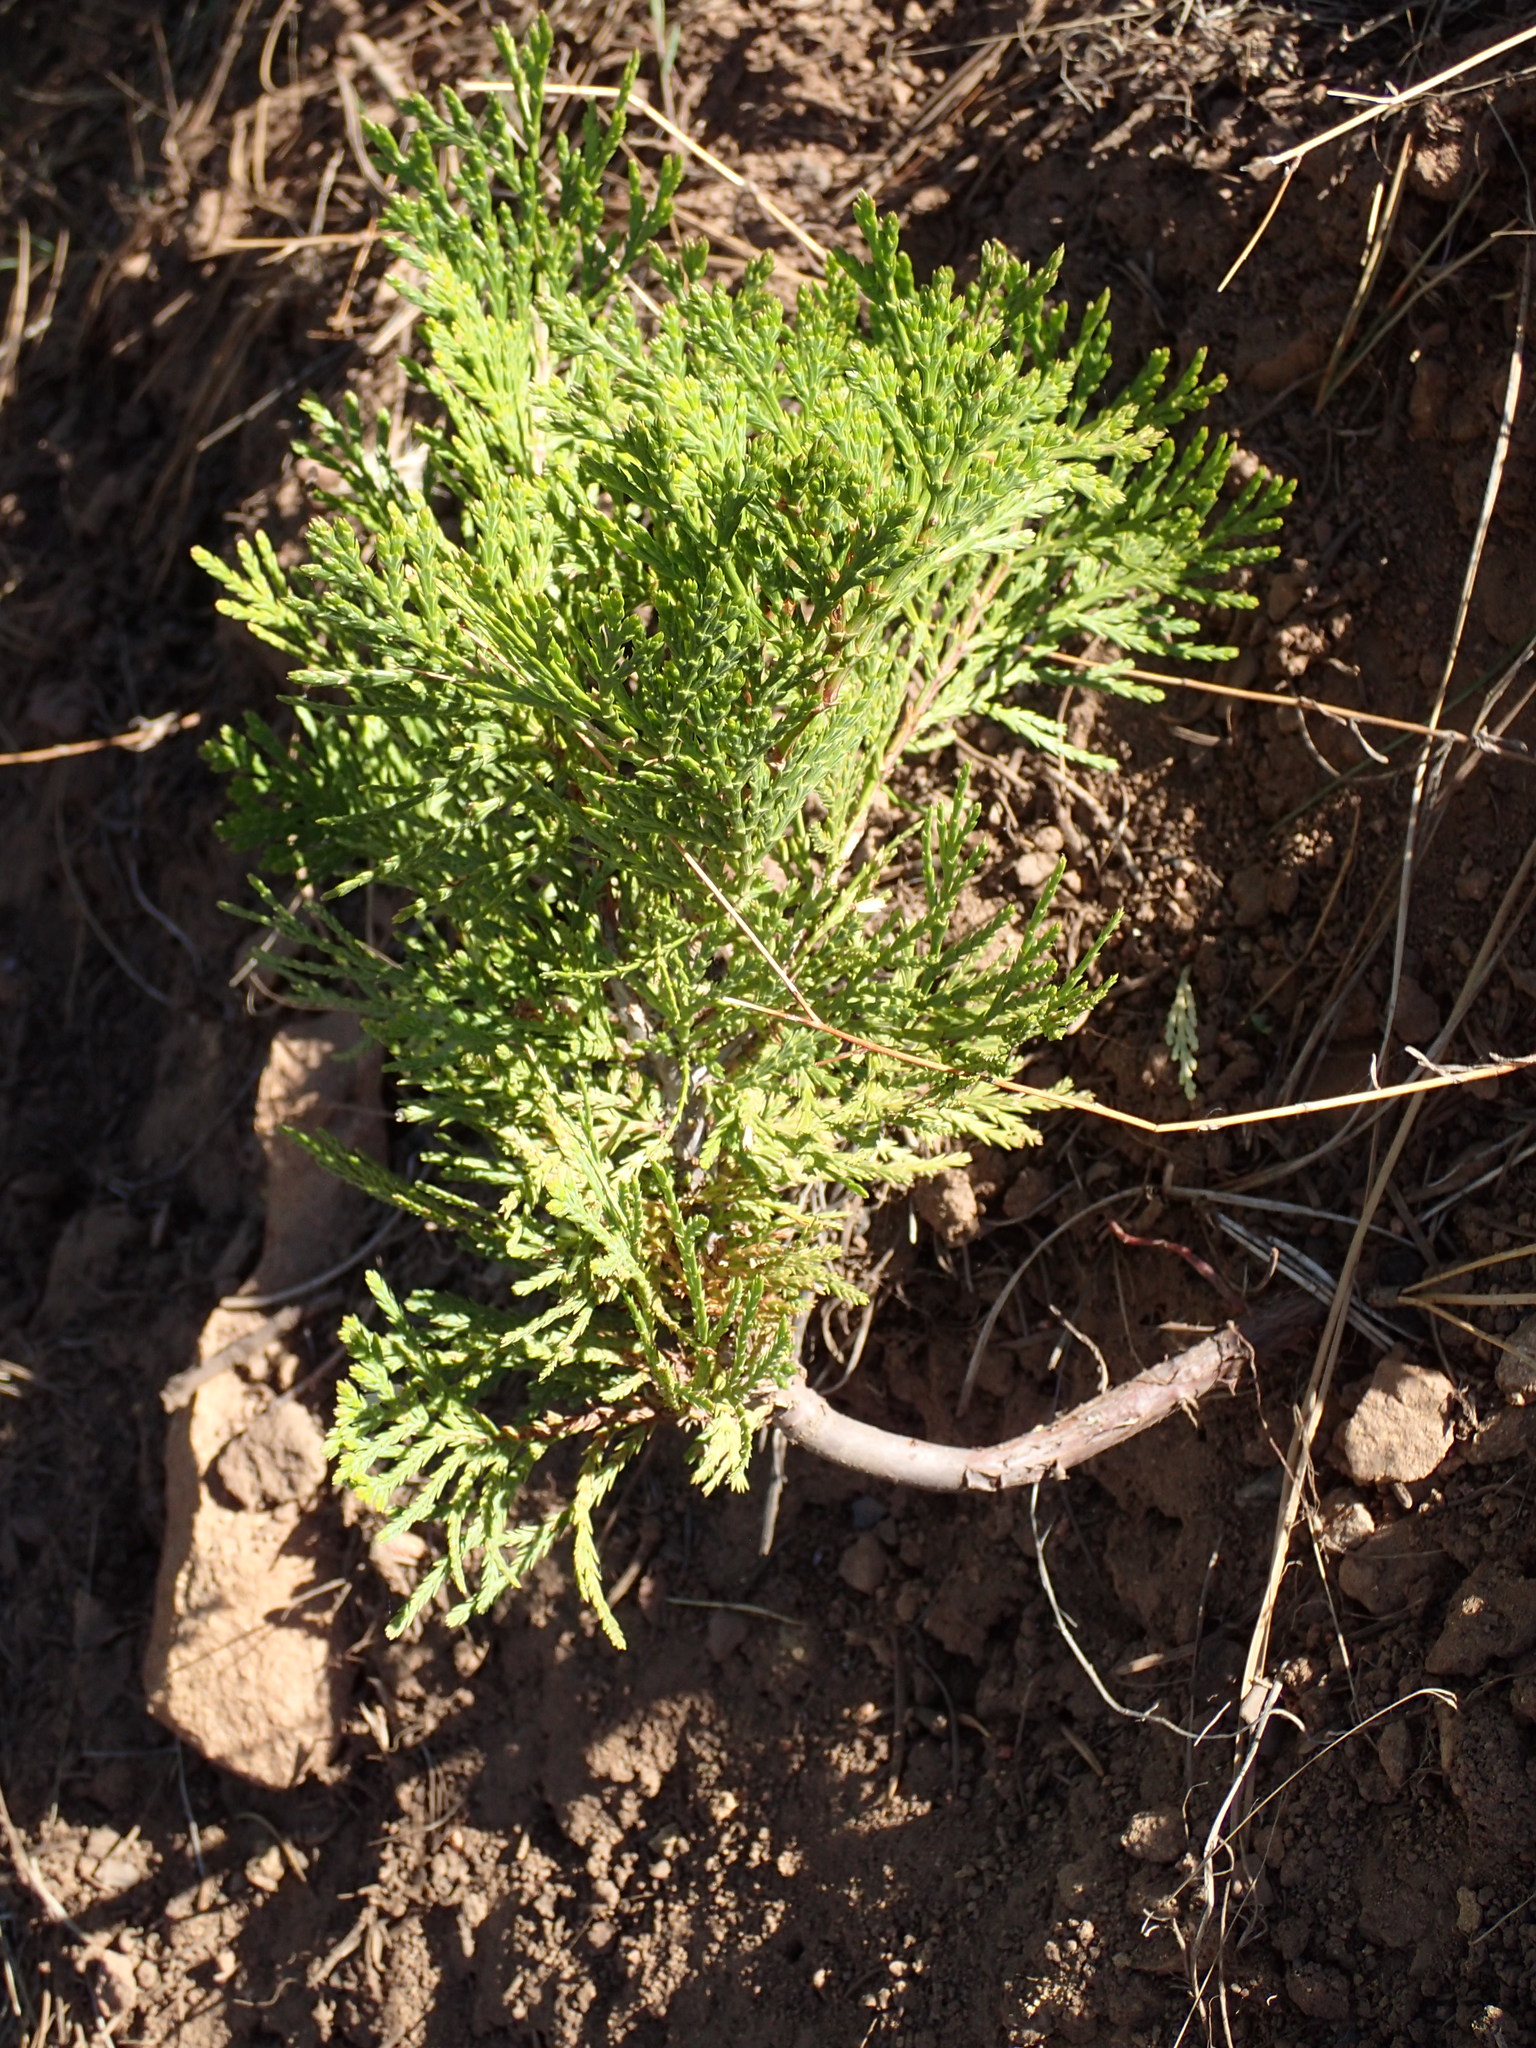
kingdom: Plantae
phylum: Tracheophyta
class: Pinopsida
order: Pinales
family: Cupressaceae
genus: Calocedrus
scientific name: Calocedrus decurrens
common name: Californian incense-cedar
